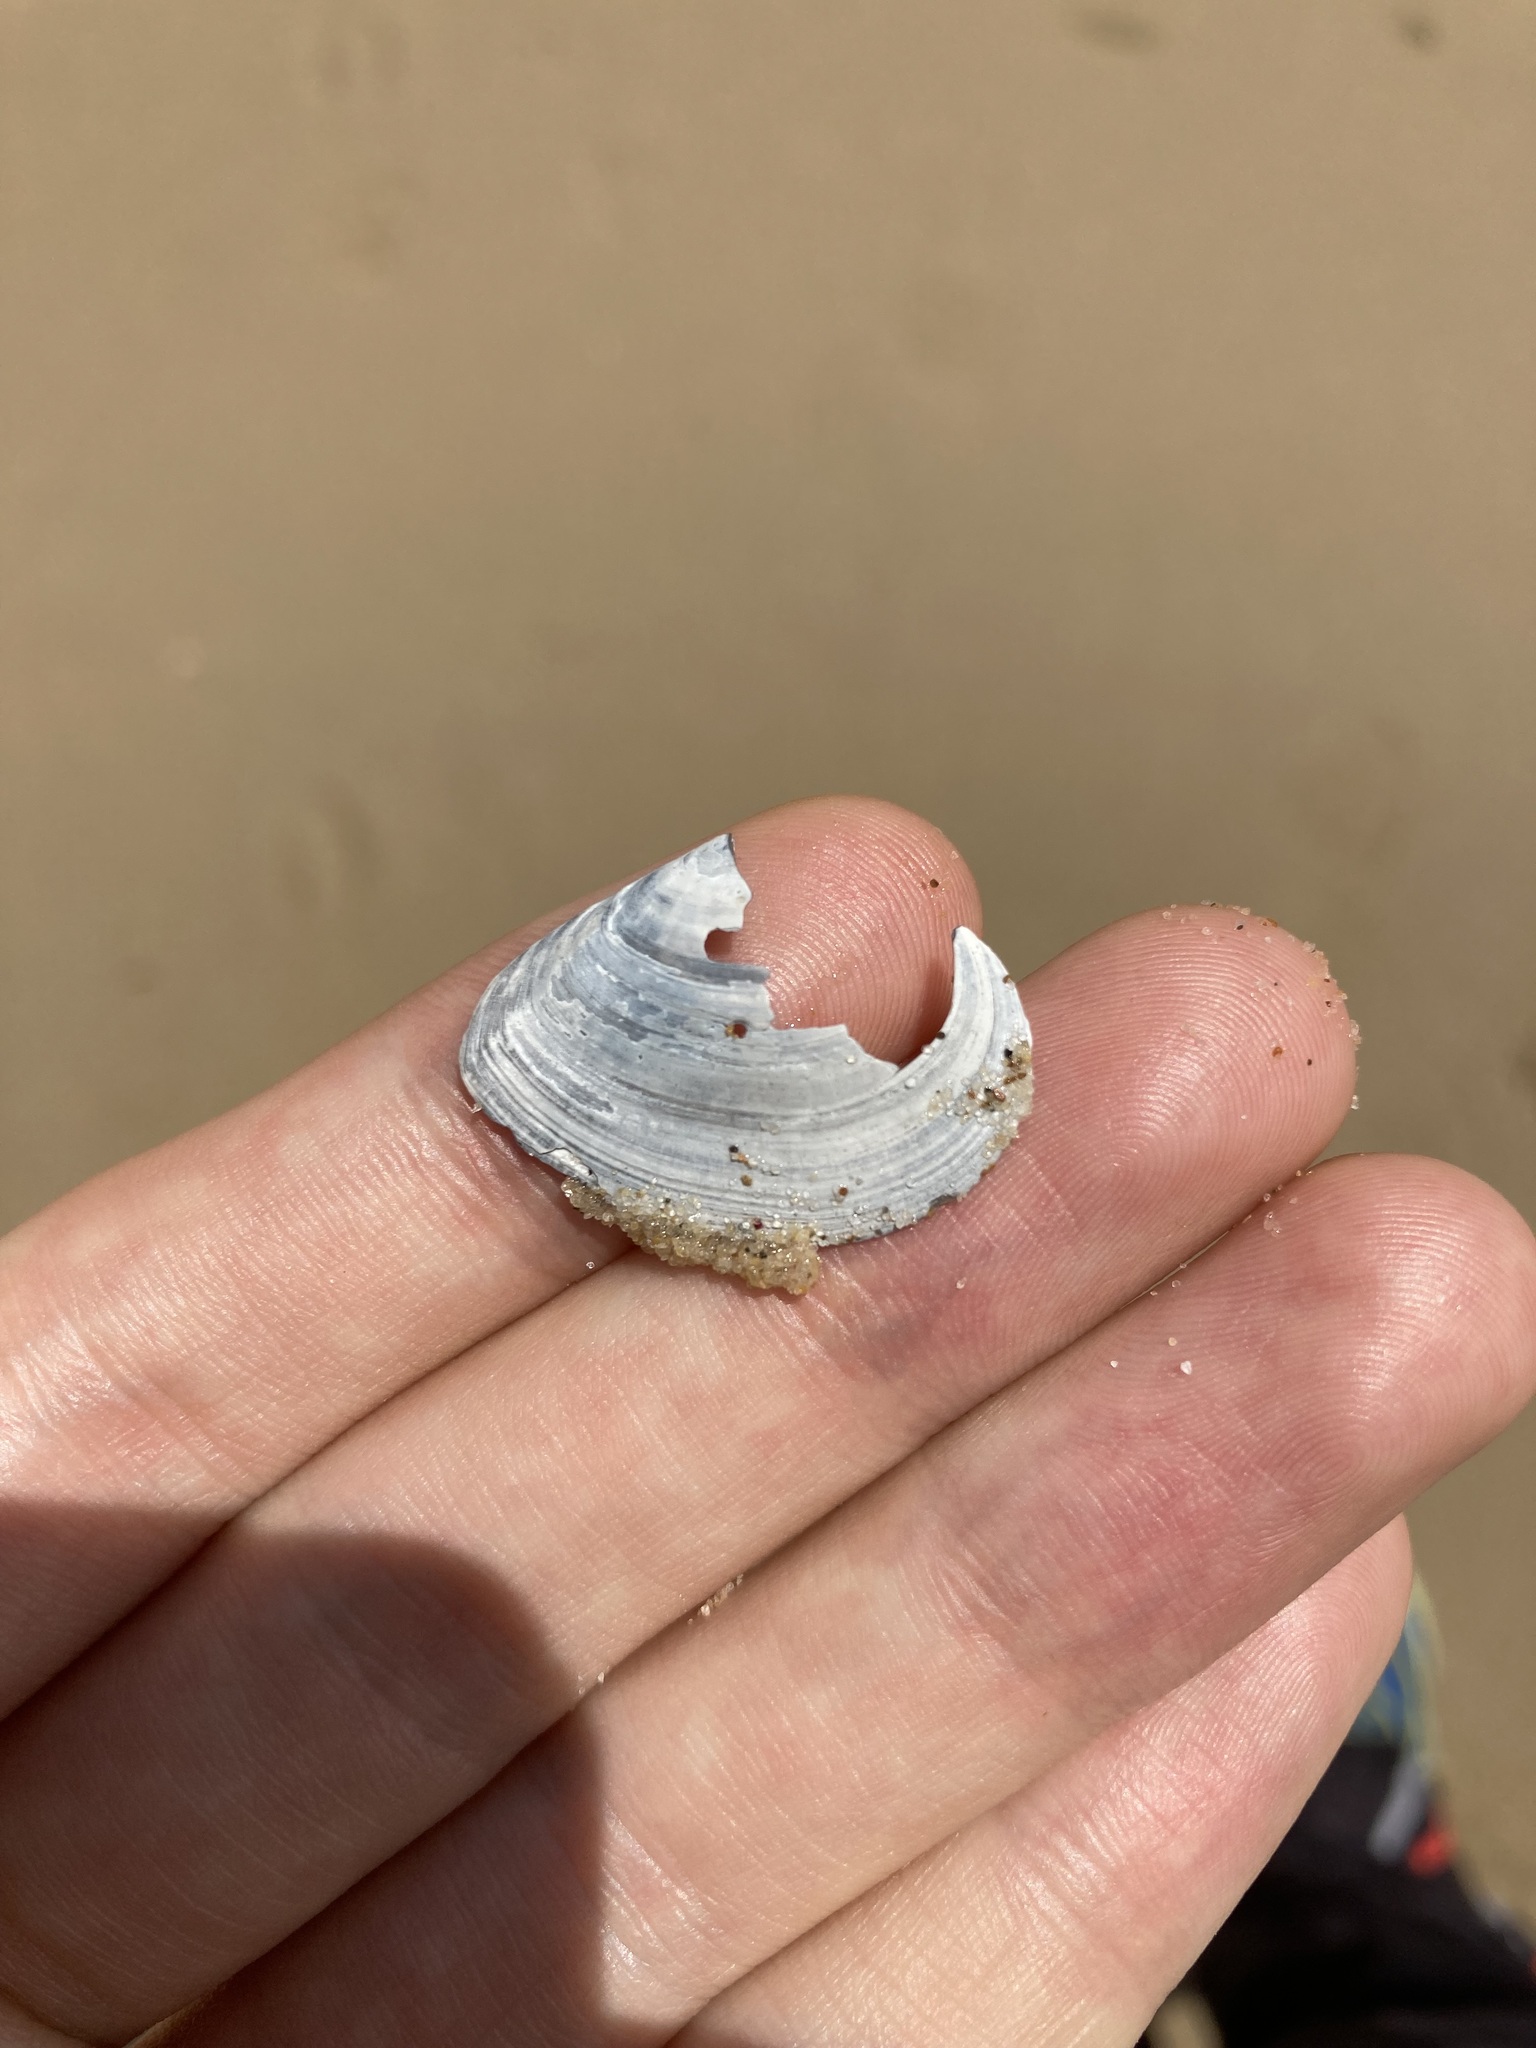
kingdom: Animalia
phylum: Mollusca
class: Bivalvia
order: Cardiida
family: Tellinidae
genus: Macomona
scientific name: Macomona deltoidalis
